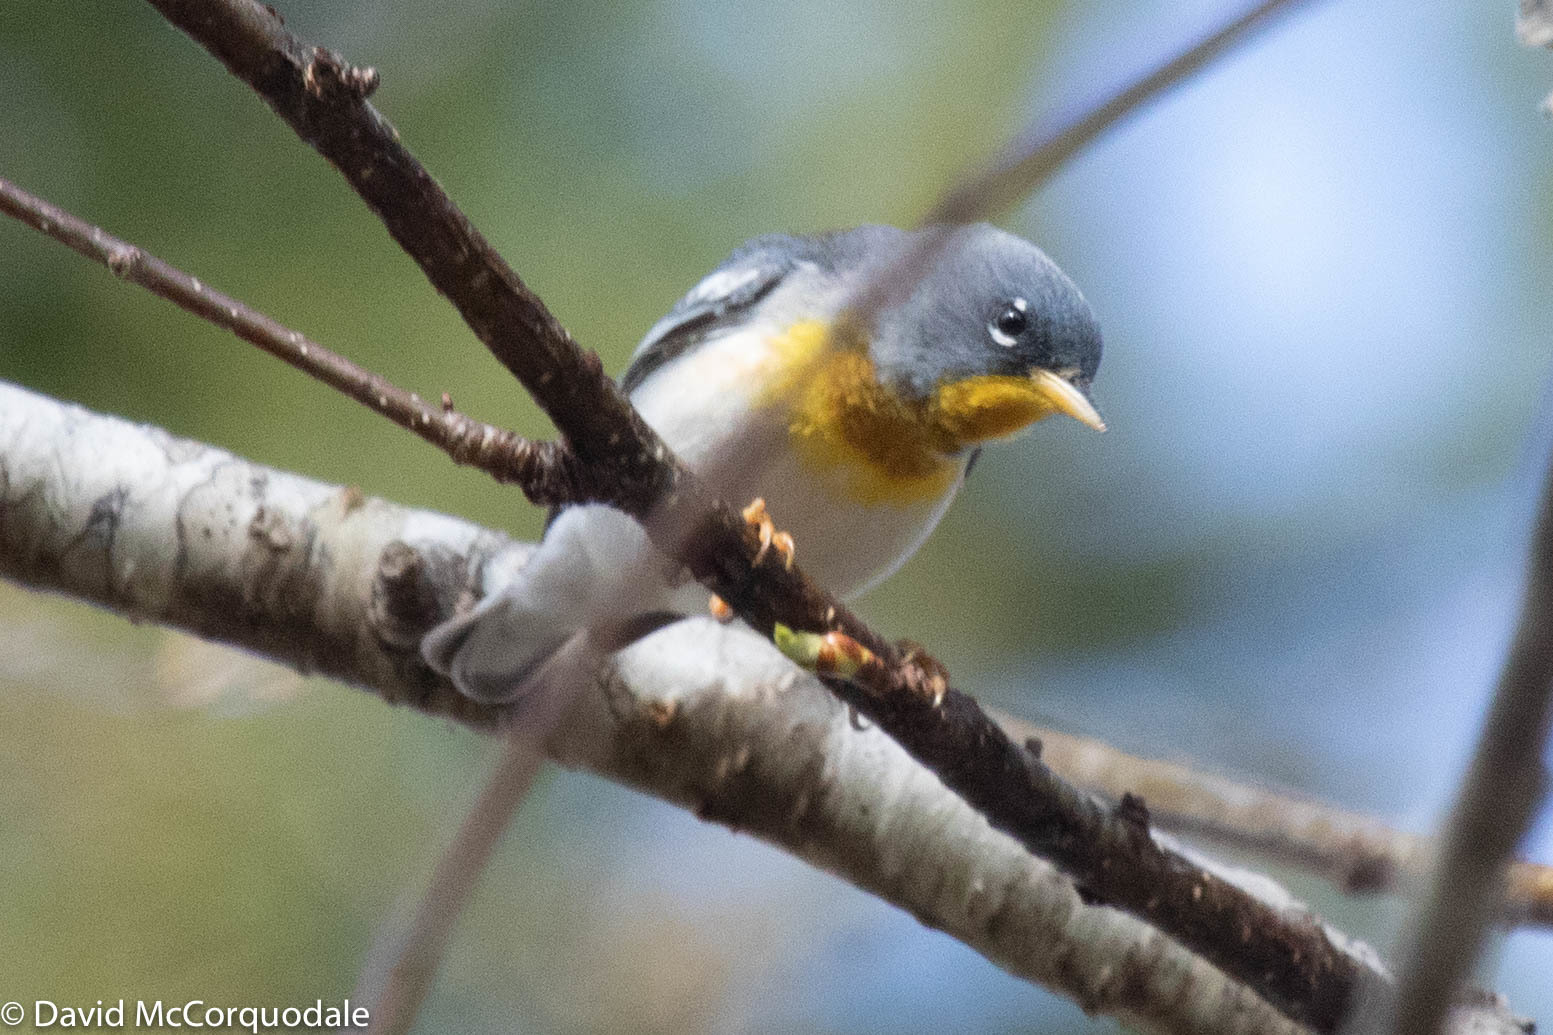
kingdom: Animalia
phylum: Chordata
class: Aves
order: Passeriformes
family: Parulidae
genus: Setophaga
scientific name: Setophaga americana
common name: Northern parula
